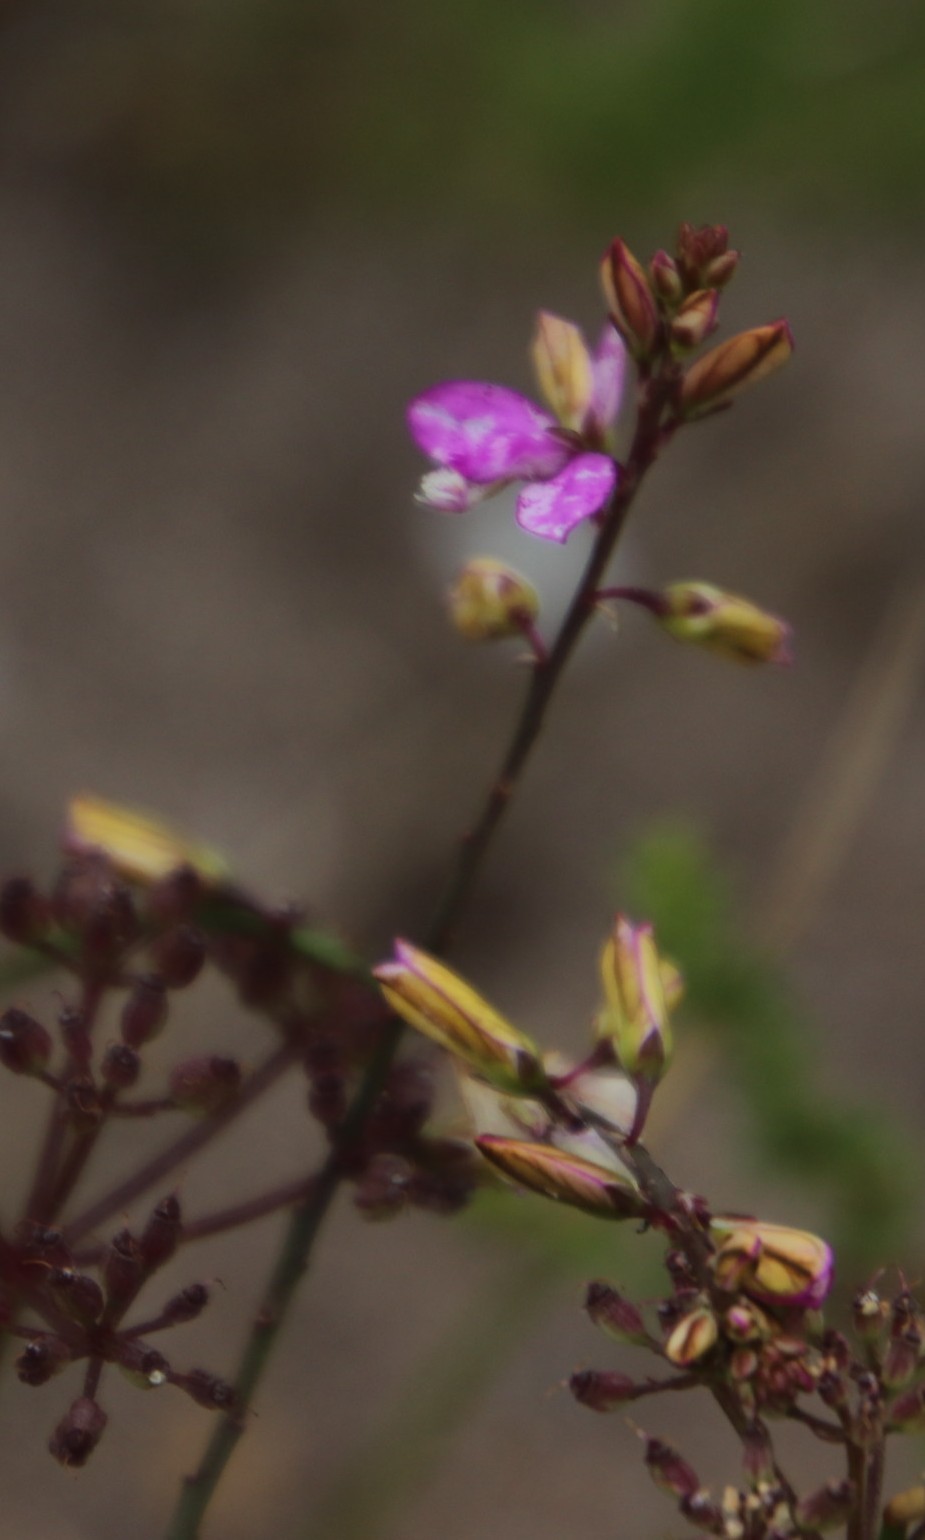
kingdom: Plantae
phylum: Tracheophyta
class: Magnoliopsida
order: Fabales
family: Polygalaceae
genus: Polygala
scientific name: Polygala garcini
